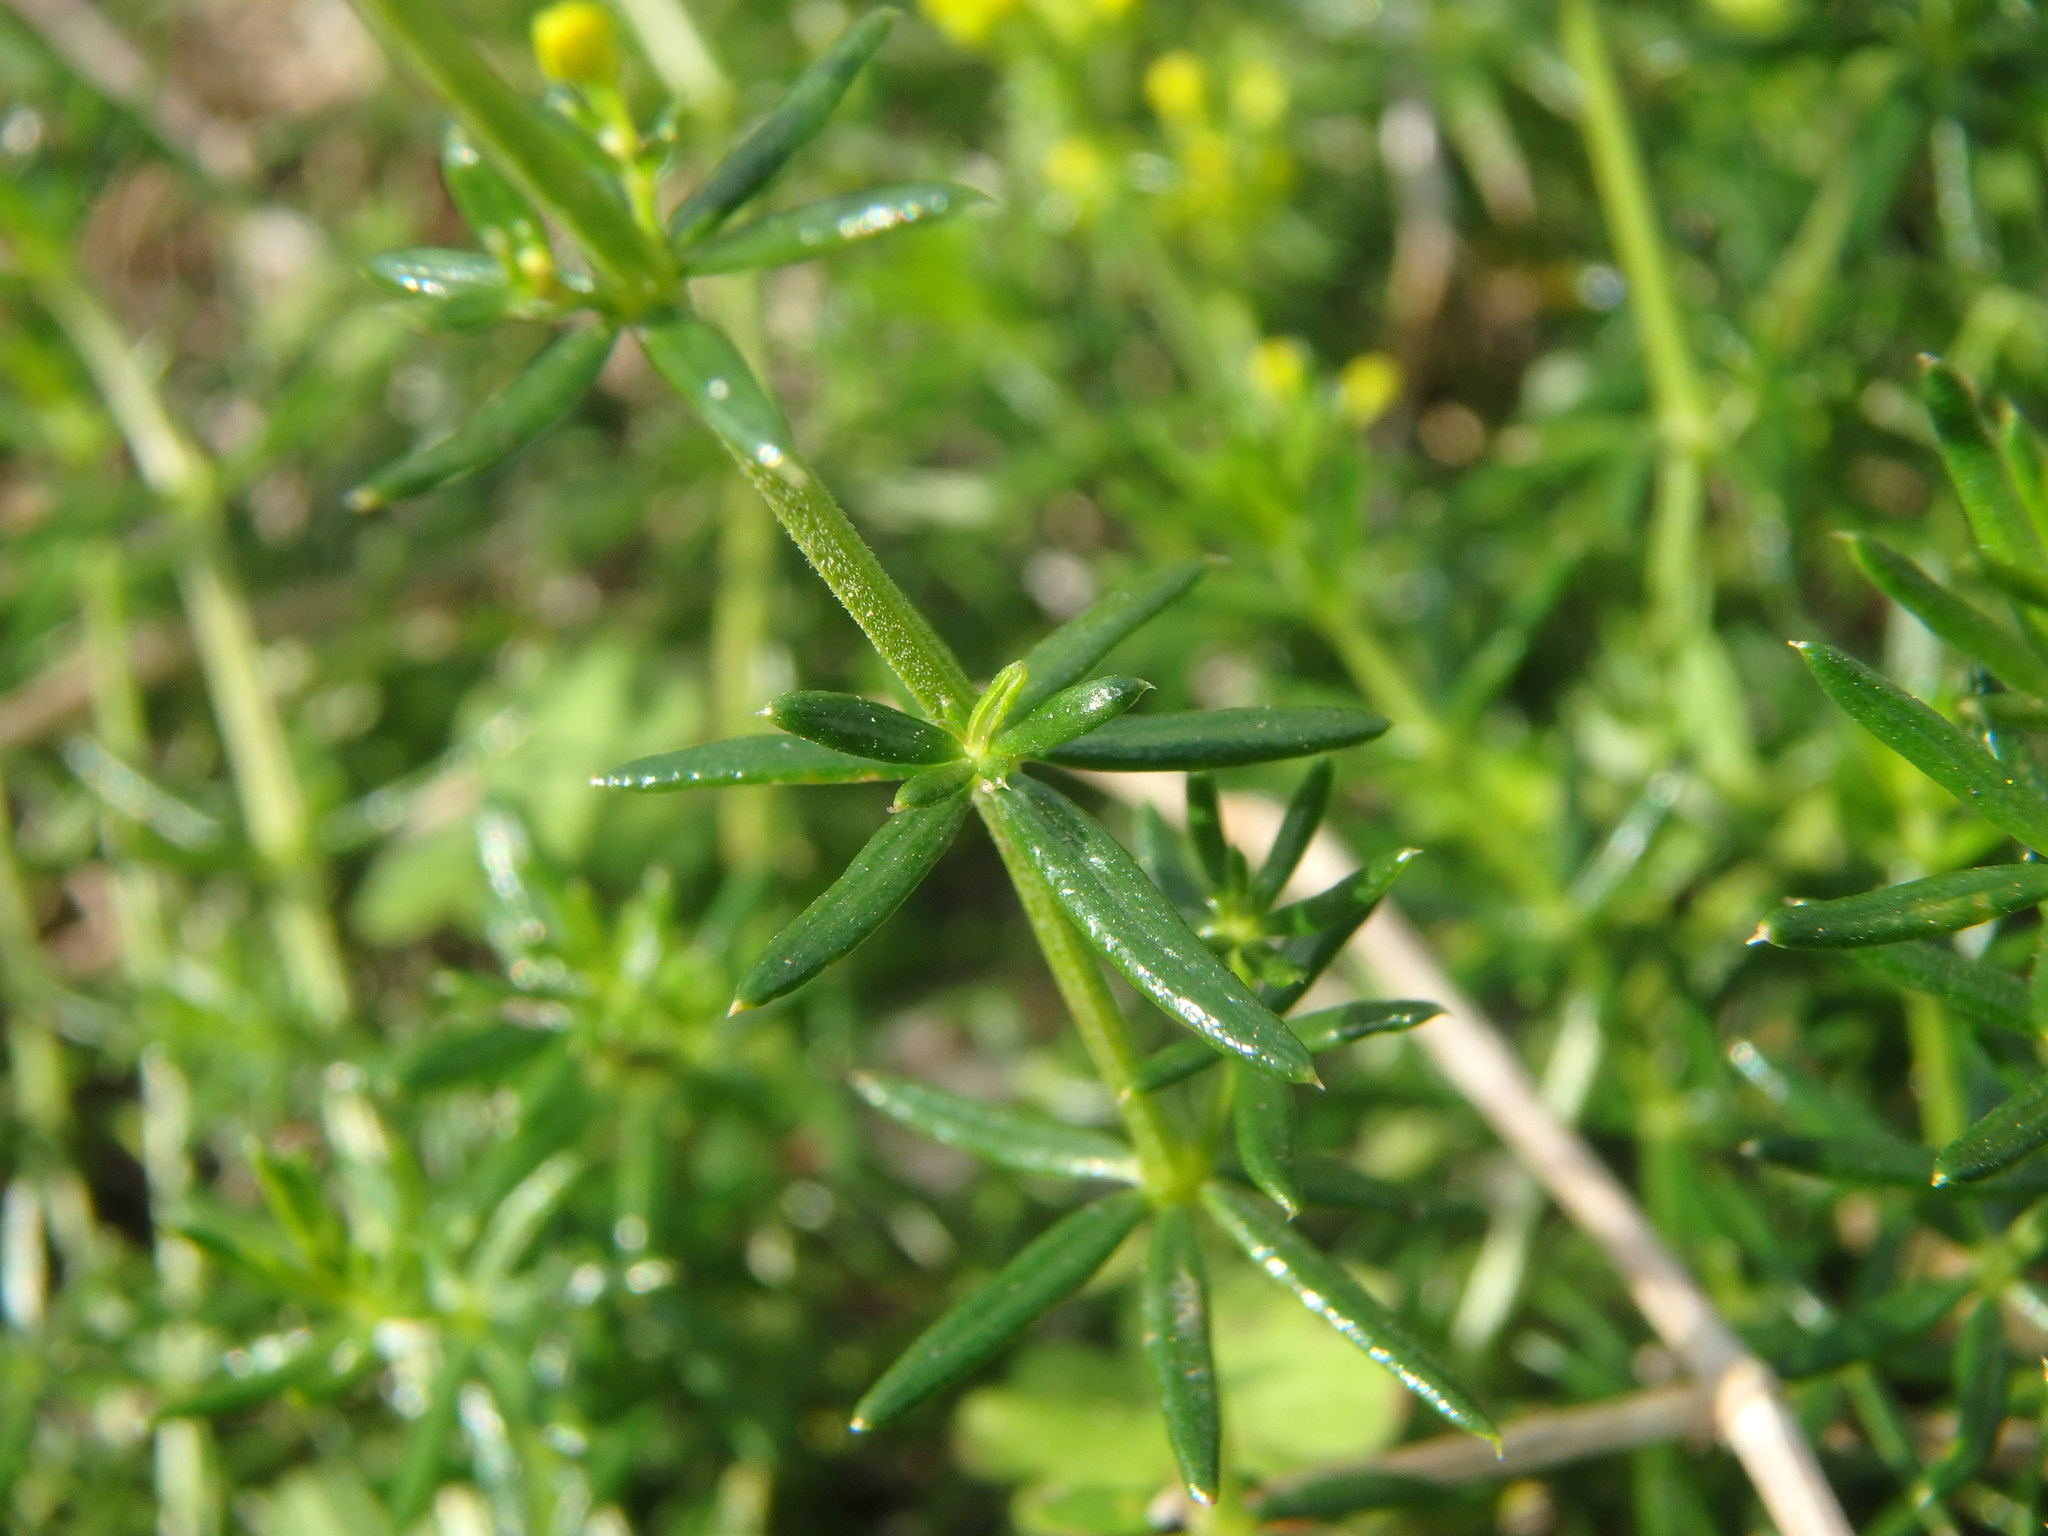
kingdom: Plantae
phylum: Tracheophyta
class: Magnoliopsida
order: Gentianales
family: Rubiaceae
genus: Galium
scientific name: Galium verum
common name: Lady's bedstraw
